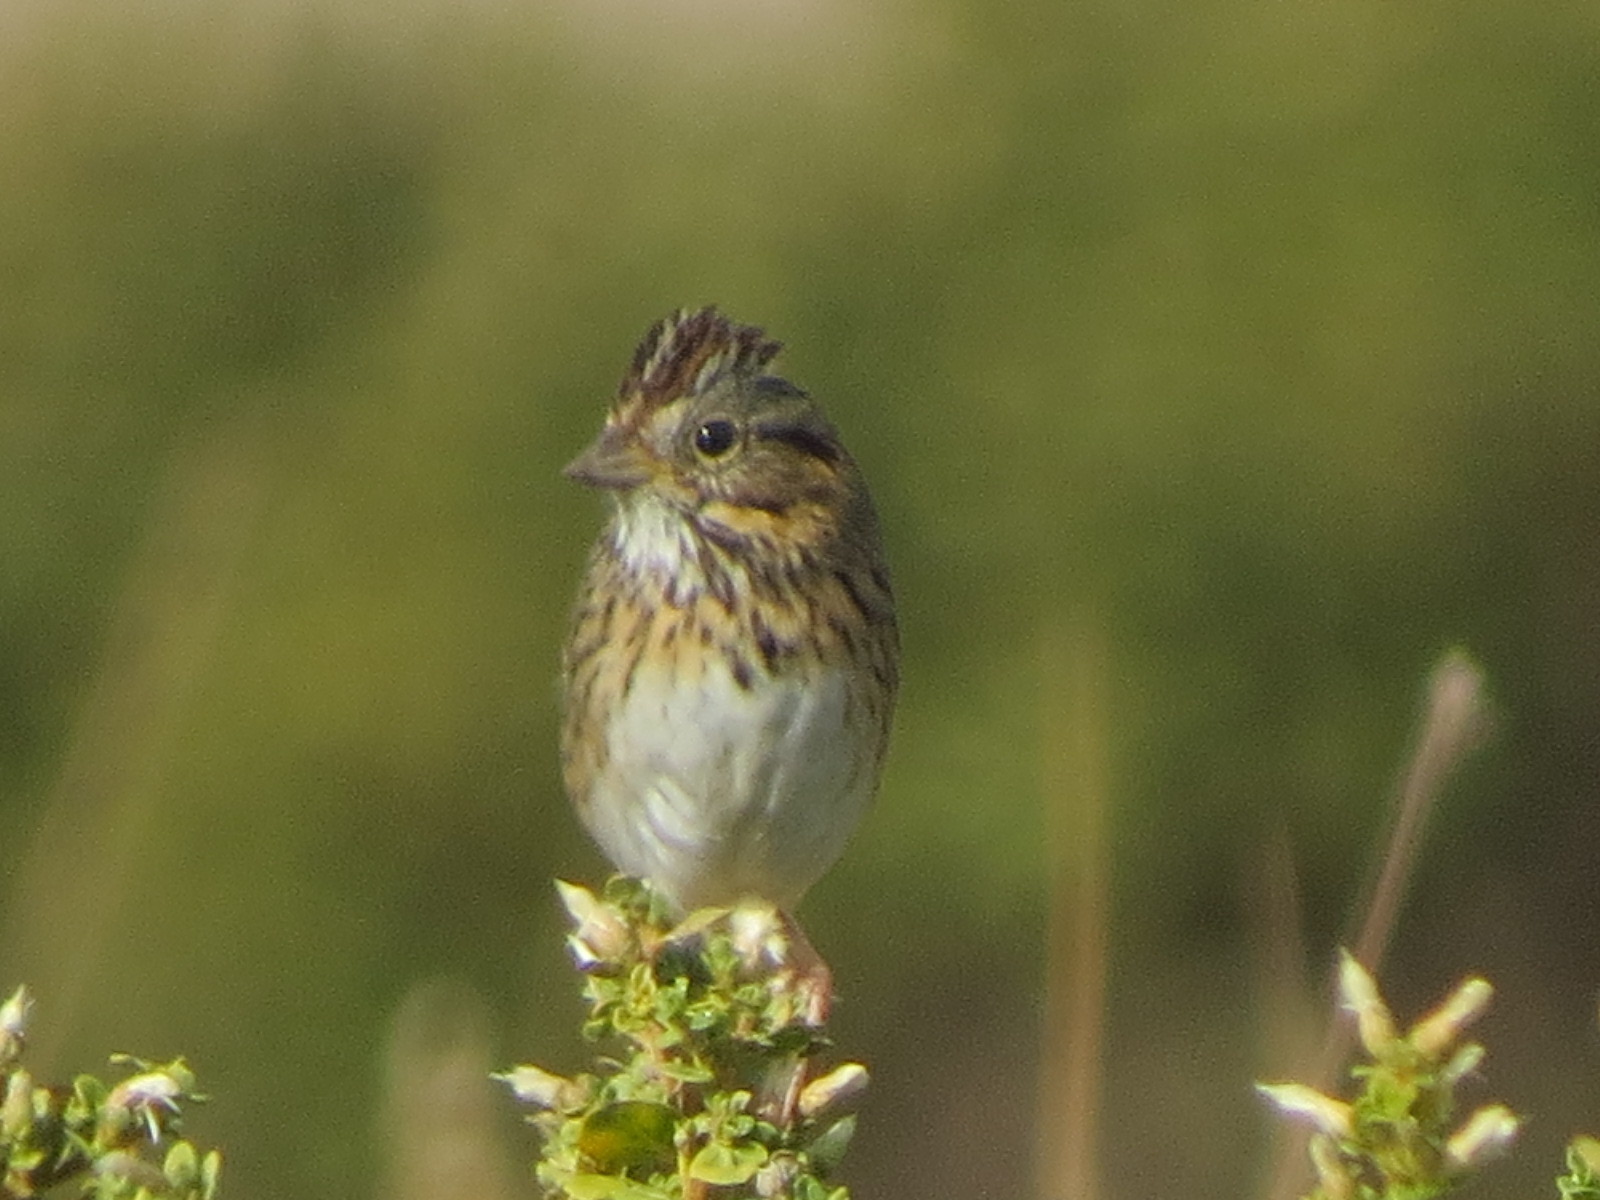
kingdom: Animalia
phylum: Chordata
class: Aves
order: Passeriformes
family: Passerellidae
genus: Melospiza
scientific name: Melospiza lincolnii
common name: Lincoln's sparrow
